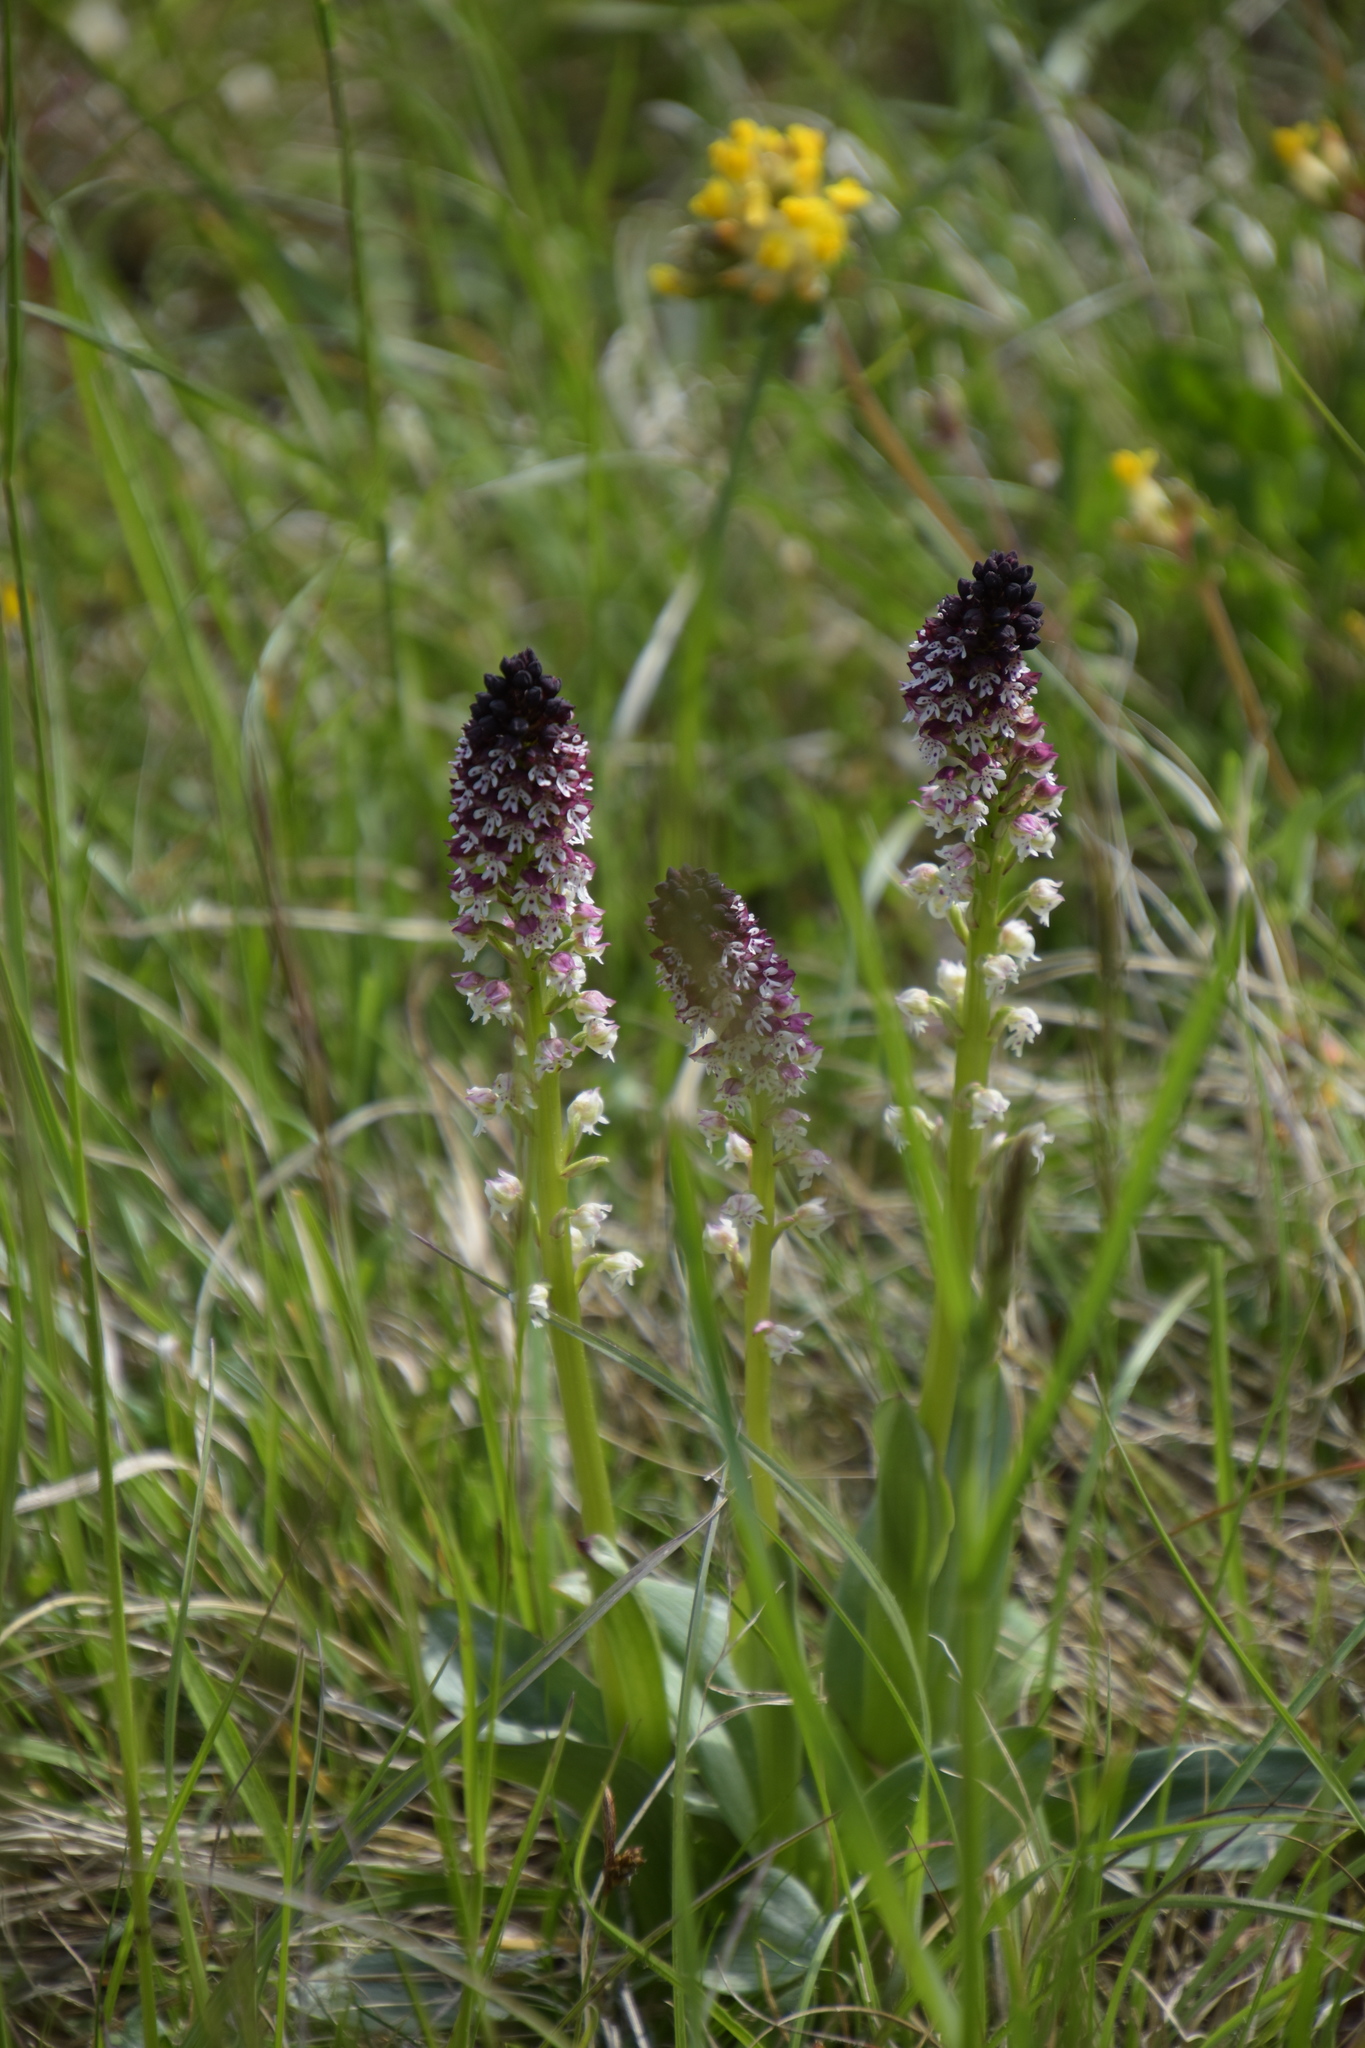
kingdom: Plantae
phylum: Tracheophyta
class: Liliopsida
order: Asparagales
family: Orchidaceae
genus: Neotinea
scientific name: Neotinea ustulata
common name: Burnt orchid
